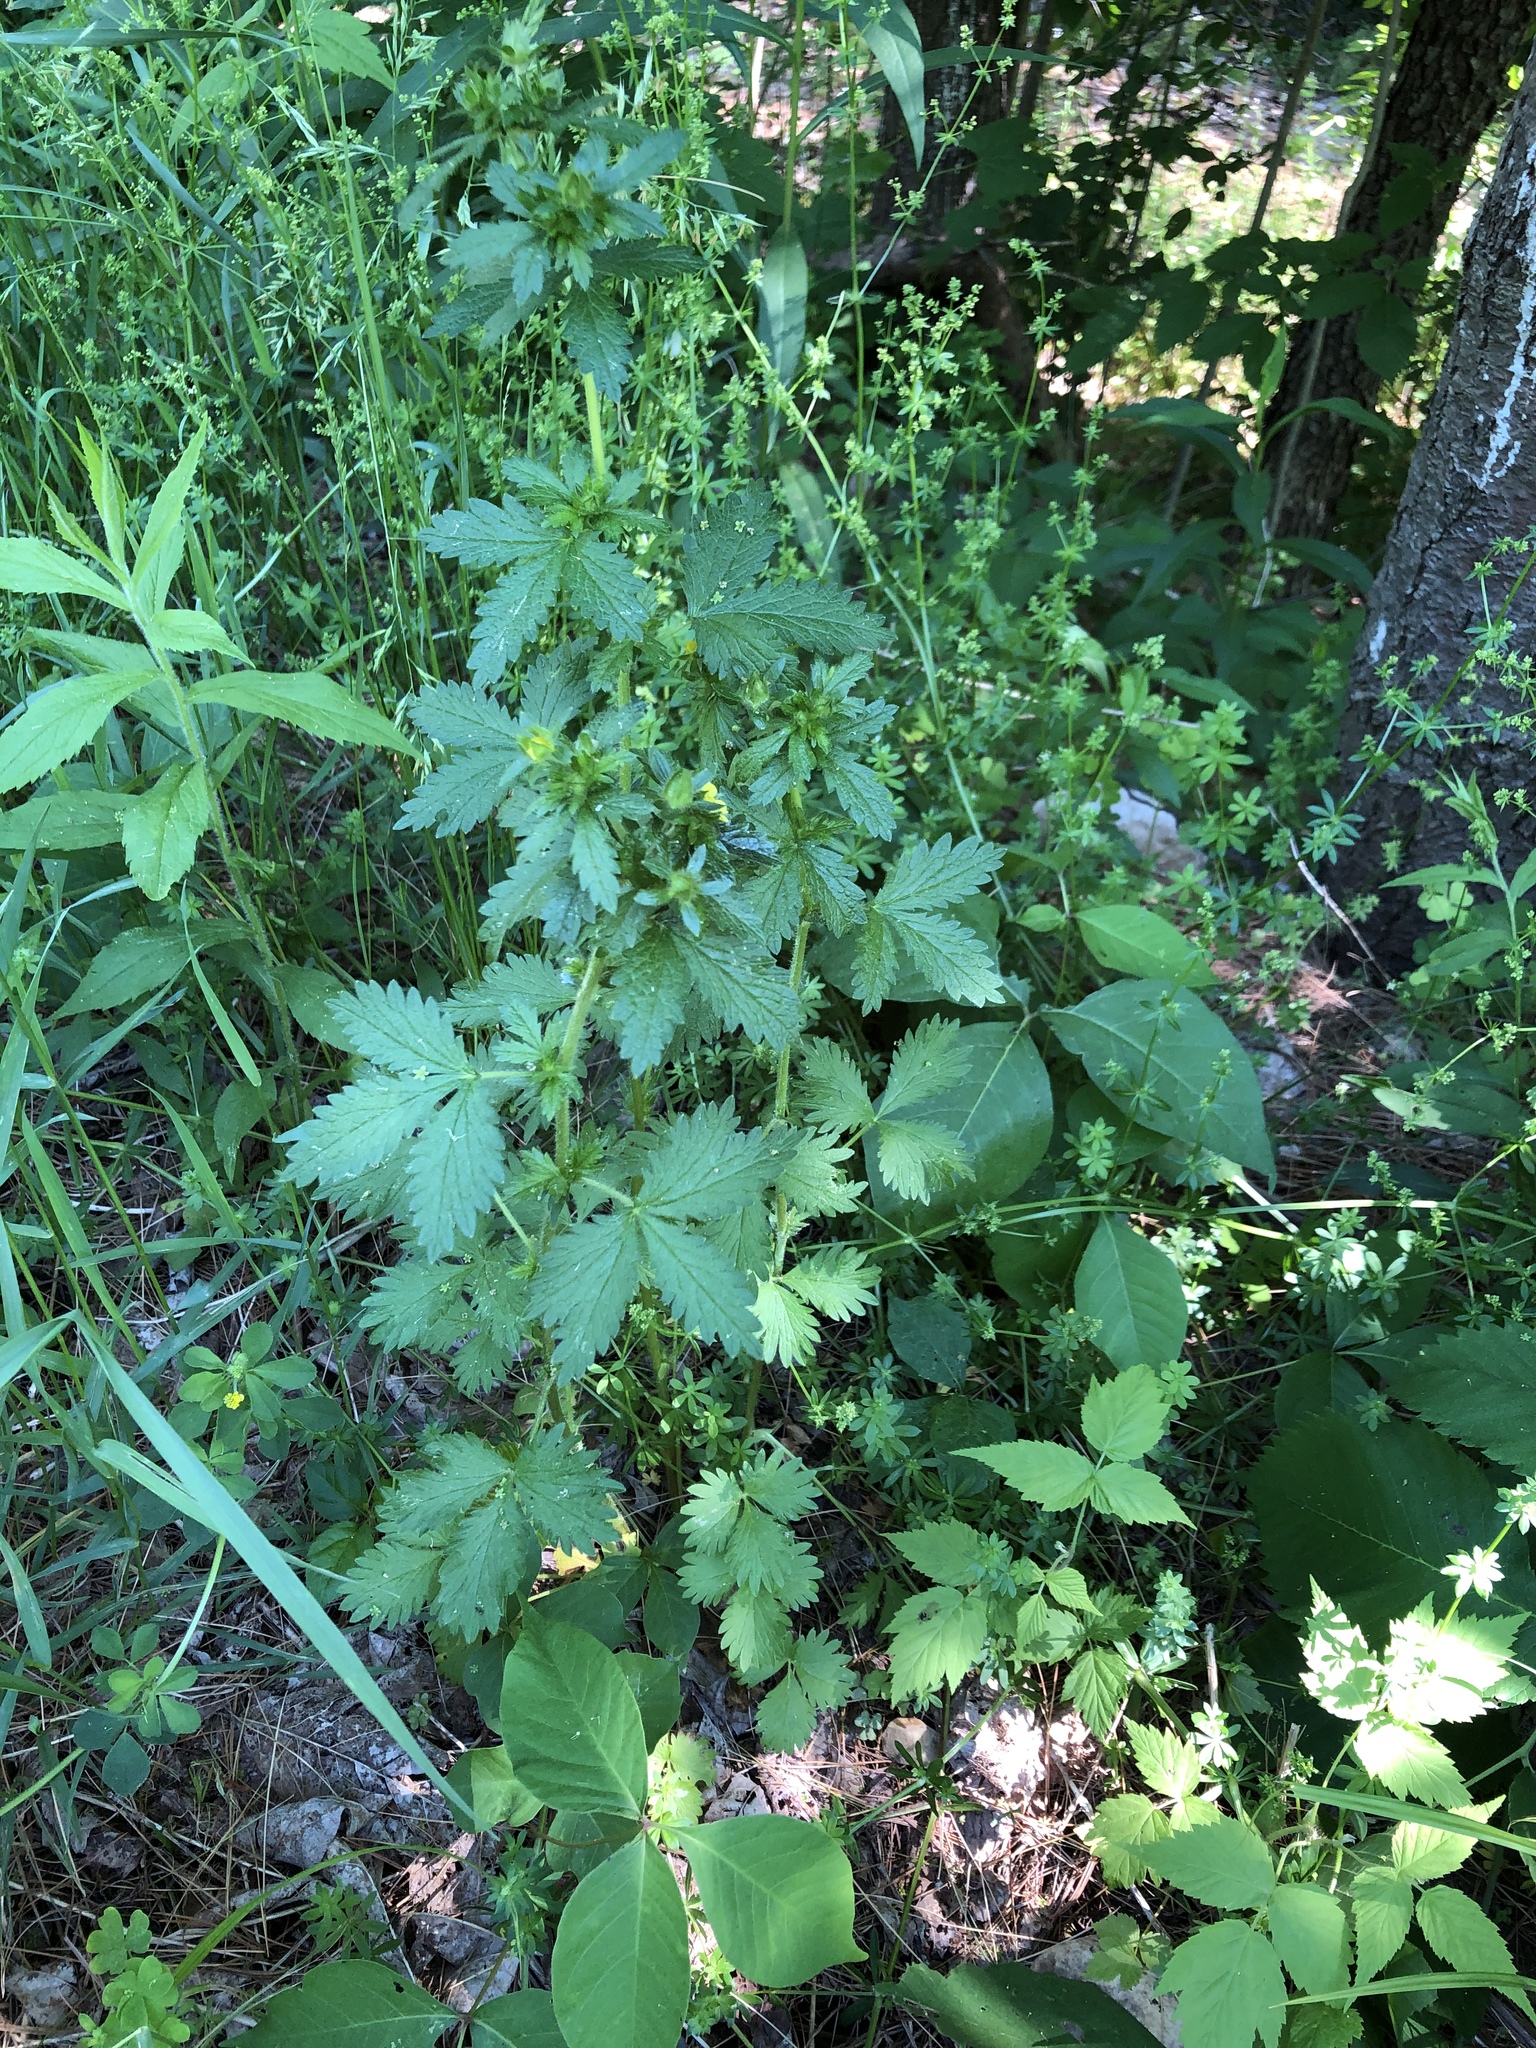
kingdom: Plantae
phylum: Tracheophyta
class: Magnoliopsida
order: Rosales
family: Rosaceae
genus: Potentilla
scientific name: Potentilla norvegica
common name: Ternate-leaved cinquefoil
